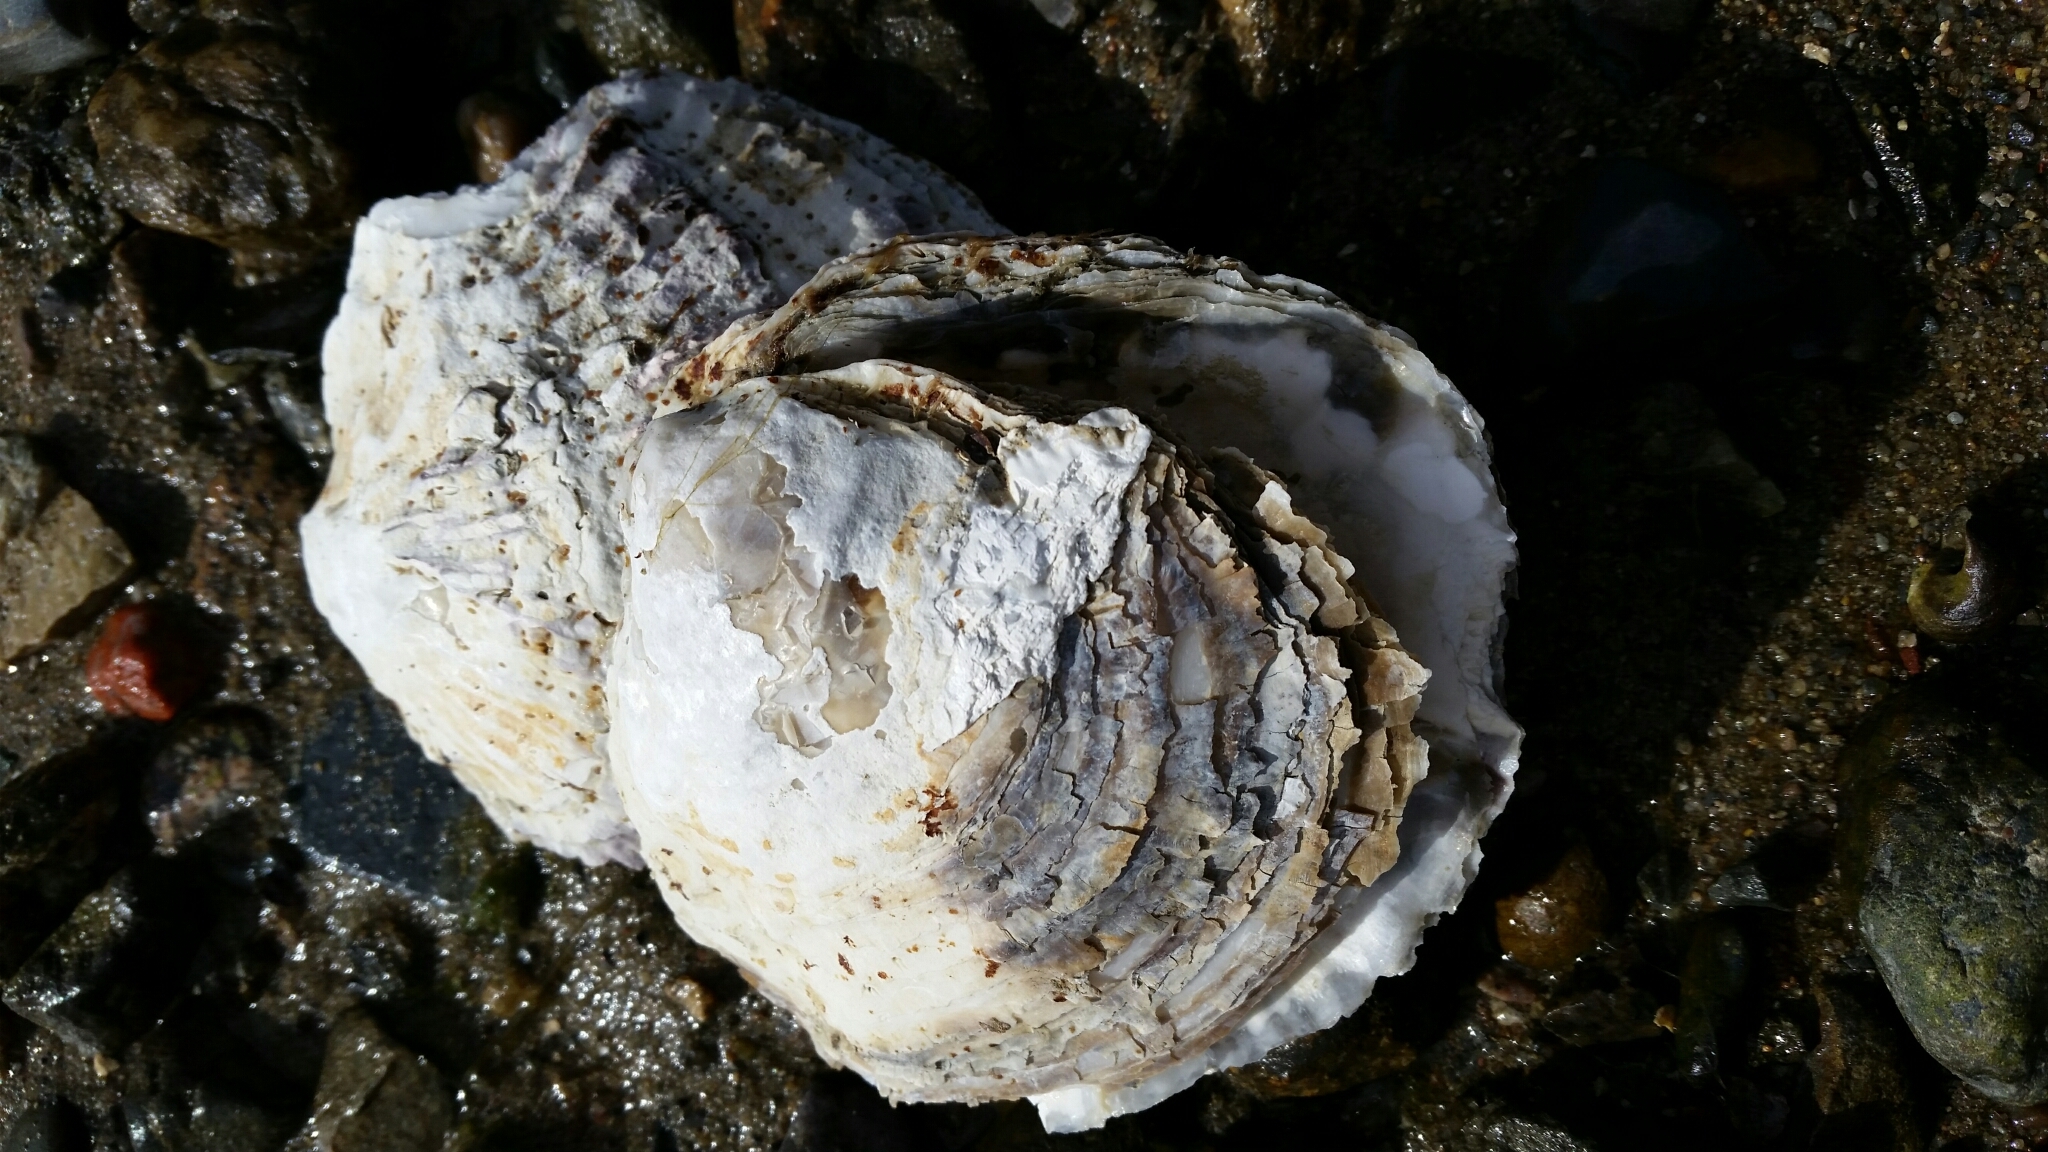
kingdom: Animalia
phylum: Mollusca
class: Bivalvia
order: Ostreida
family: Ostreidae
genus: Ostrea
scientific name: Ostrea edulis
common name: Flat oyster
